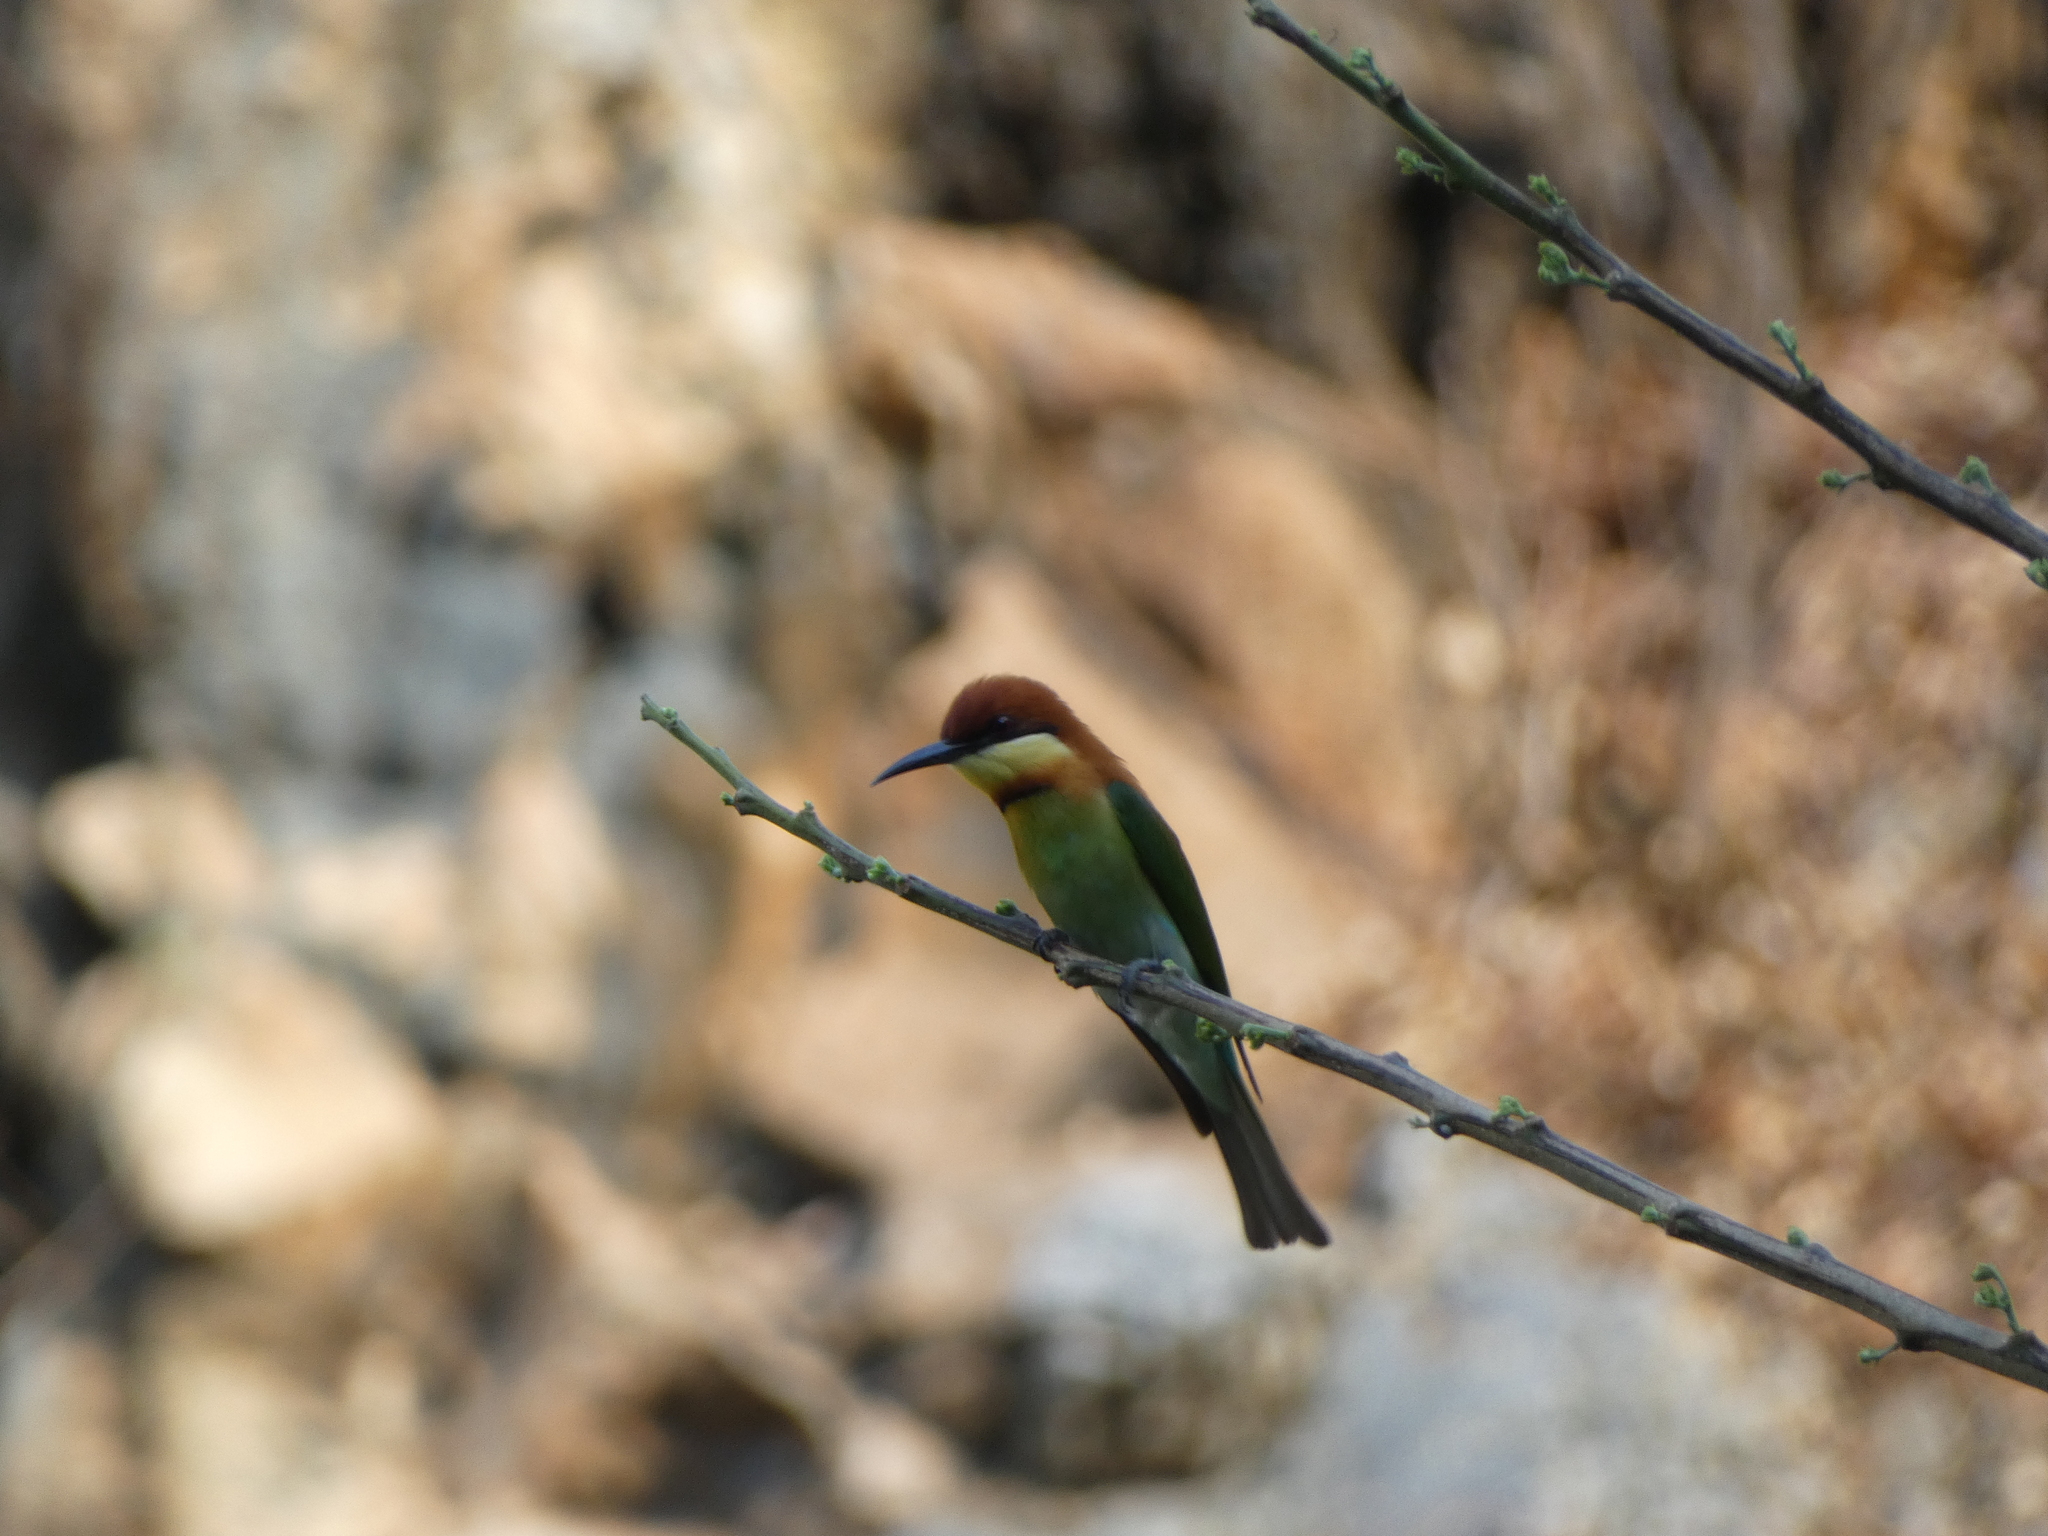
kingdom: Animalia
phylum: Chordata
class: Aves
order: Coraciiformes
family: Meropidae
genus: Merops
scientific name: Merops leschenaulti
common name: Chestnut-headed bee-eater
